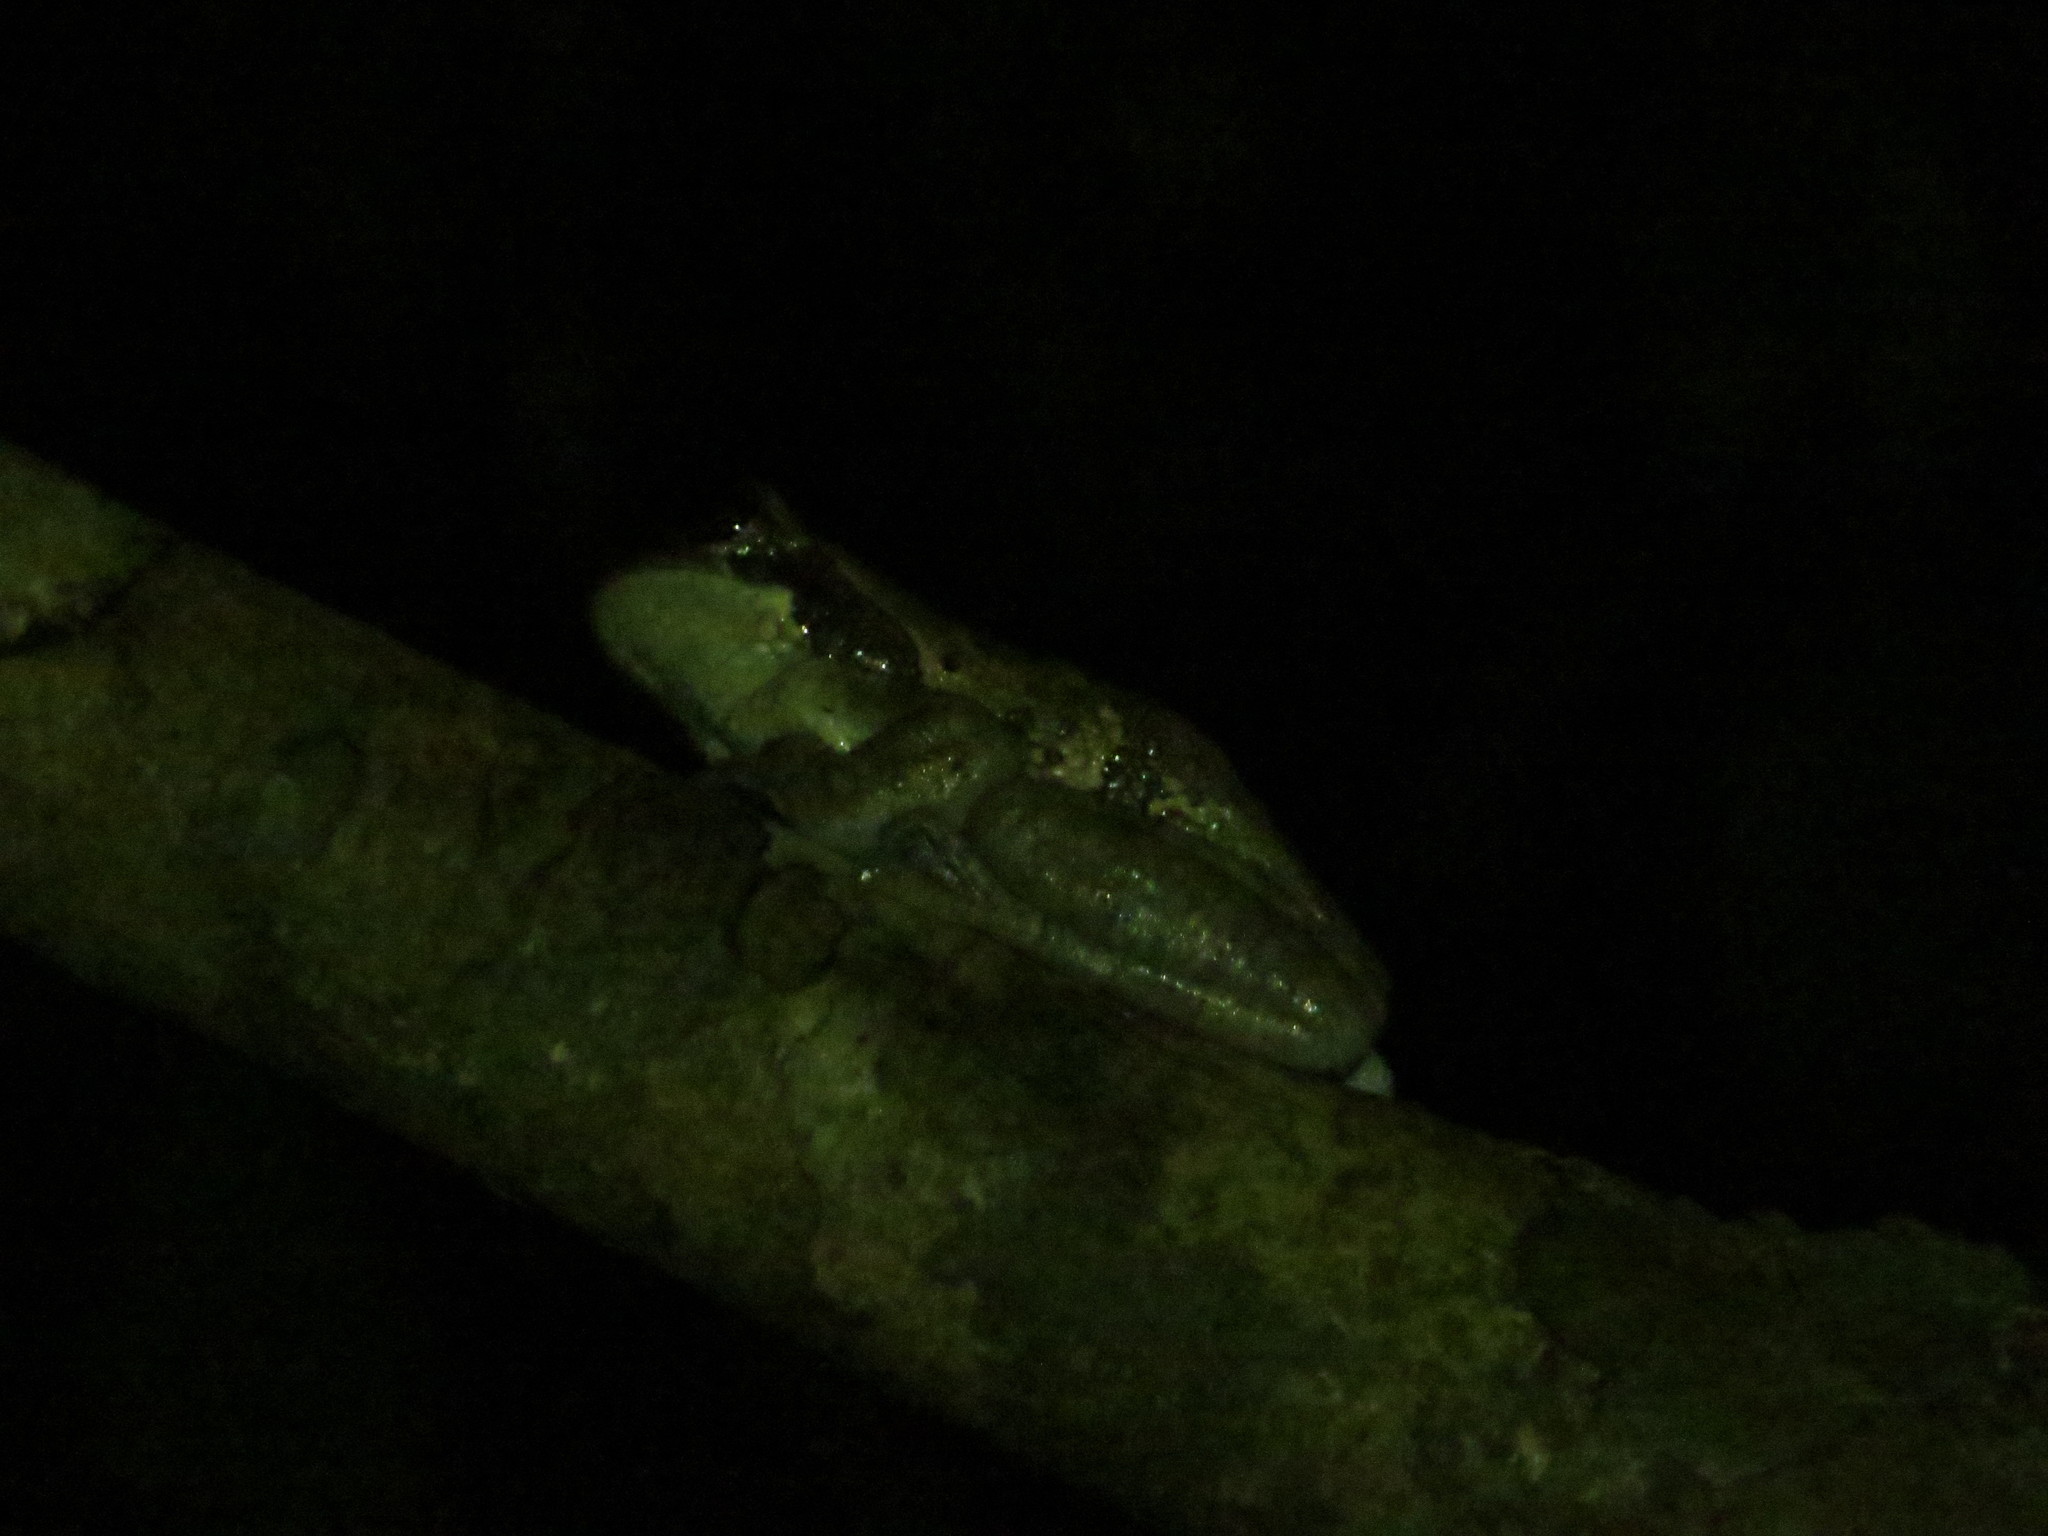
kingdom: Animalia
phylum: Chordata
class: Amphibia
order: Anura
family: Hylidae
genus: Trachycephalus
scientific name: Trachycephalus typhonius
